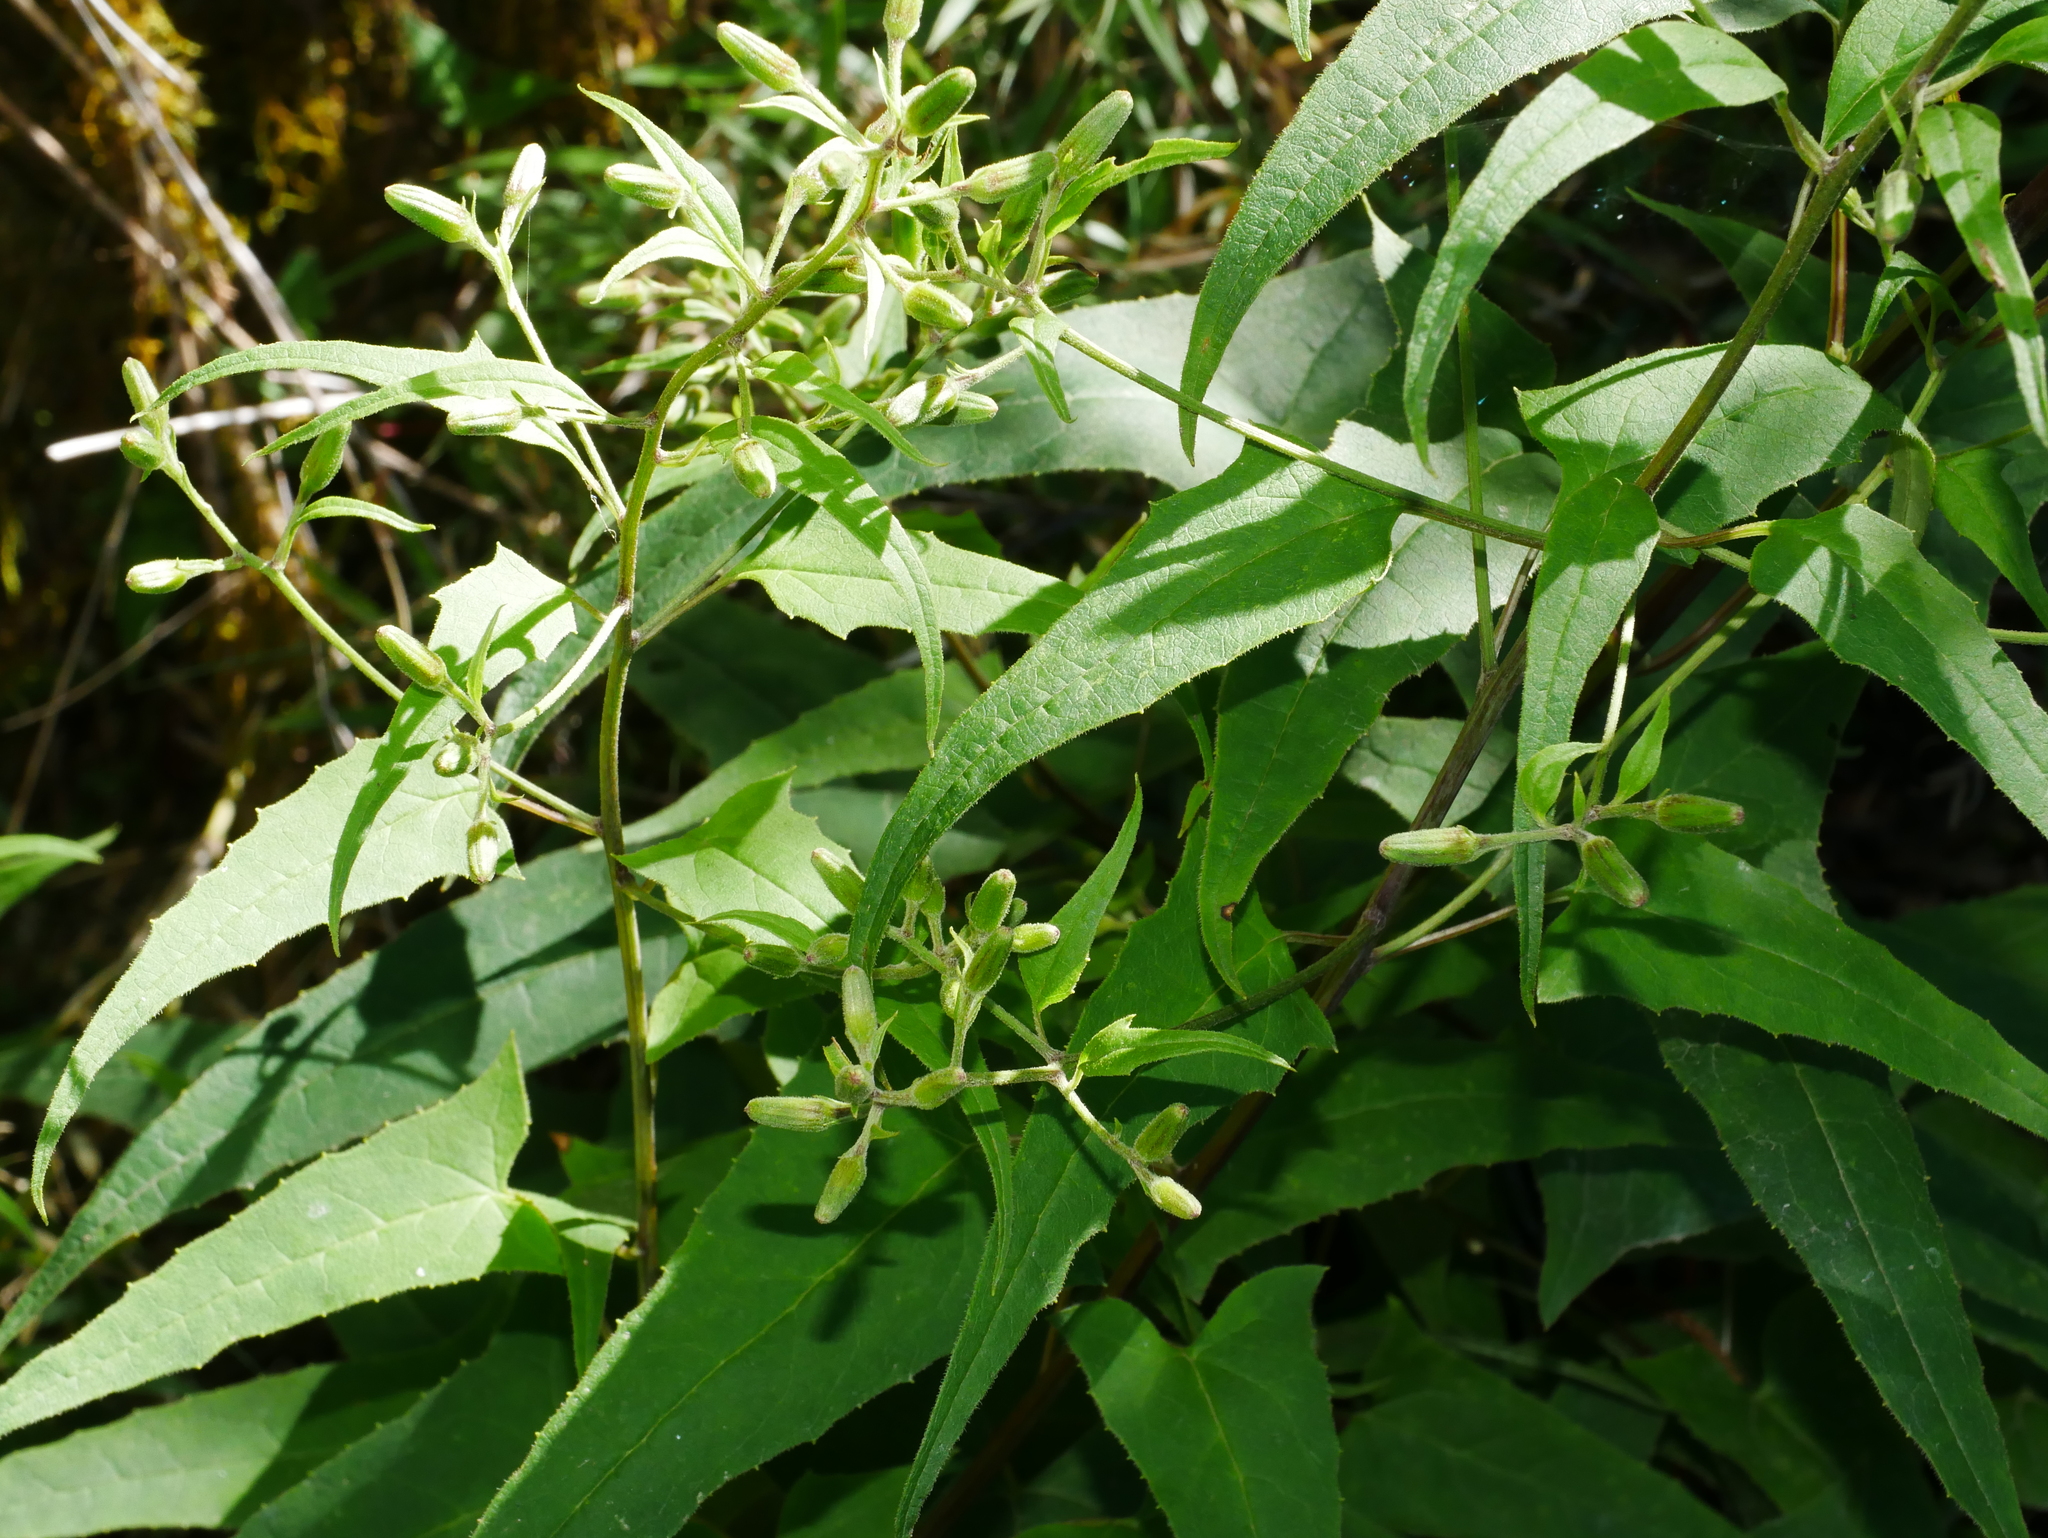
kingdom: Plantae
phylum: Tracheophyta
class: Magnoliopsida
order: Asterales
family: Asteraceae
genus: Parasenecio
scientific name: Parasenecio nokoensis
